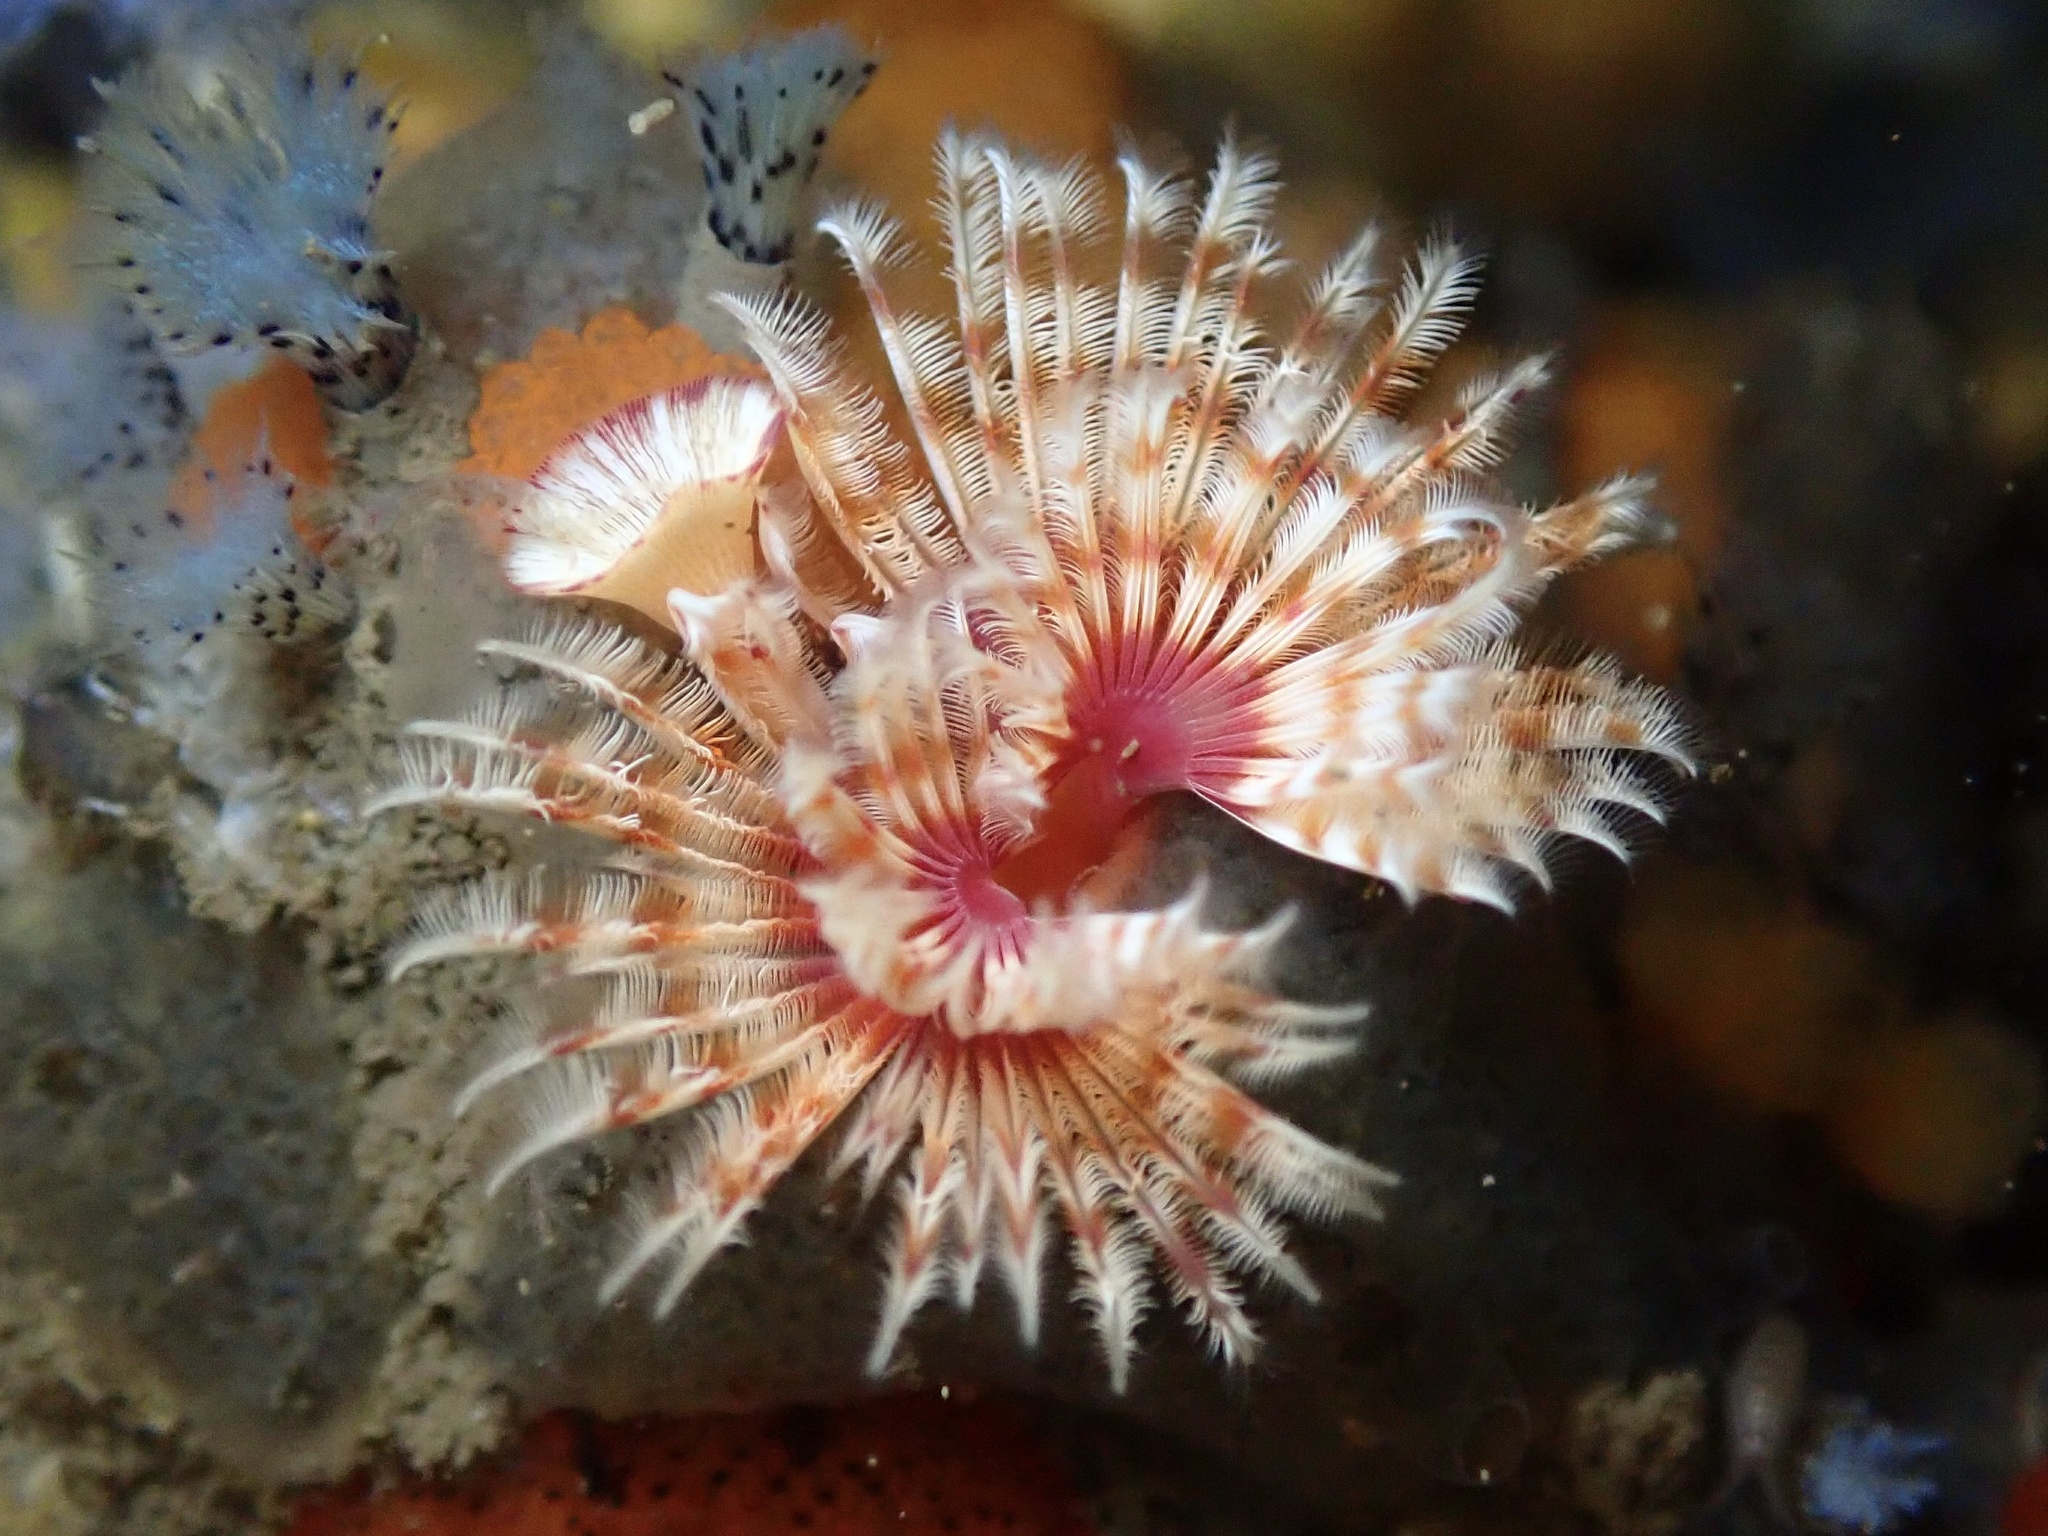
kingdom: Animalia
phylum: Annelida
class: Polychaeta
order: Sabellida
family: Serpulidae
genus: Serpula
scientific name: Serpula columbiana
